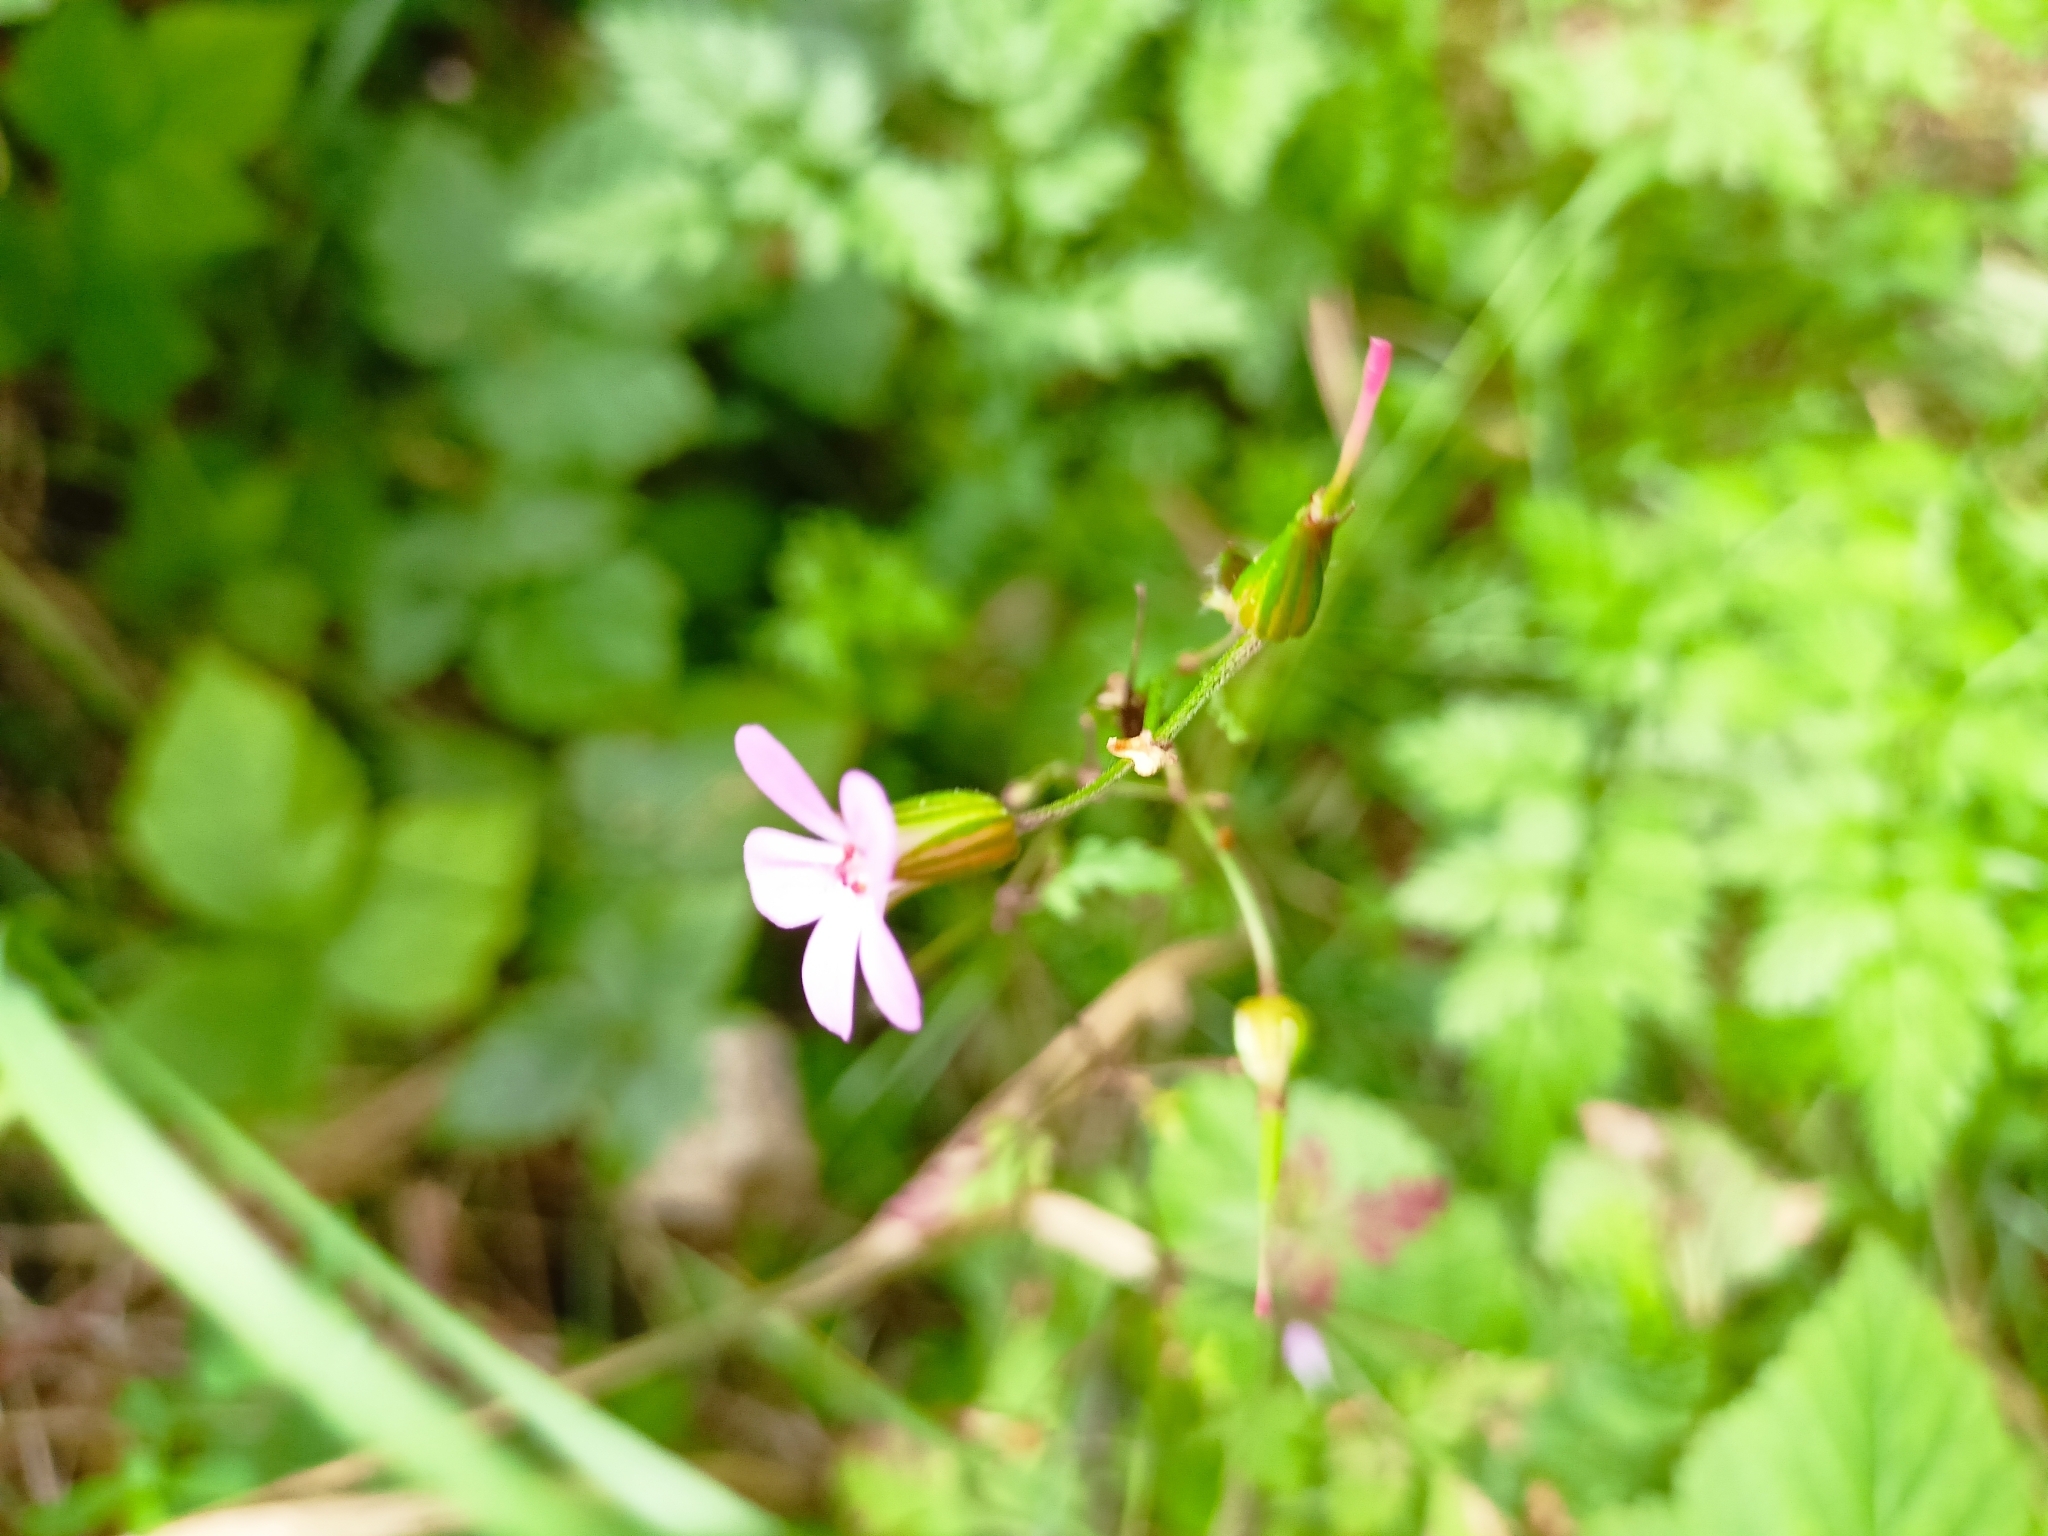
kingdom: Plantae
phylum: Tracheophyta
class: Magnoliopsida
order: Geraniales
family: Geraniaceae
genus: Geranium
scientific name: Geranium robertianum
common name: Herb-robert
